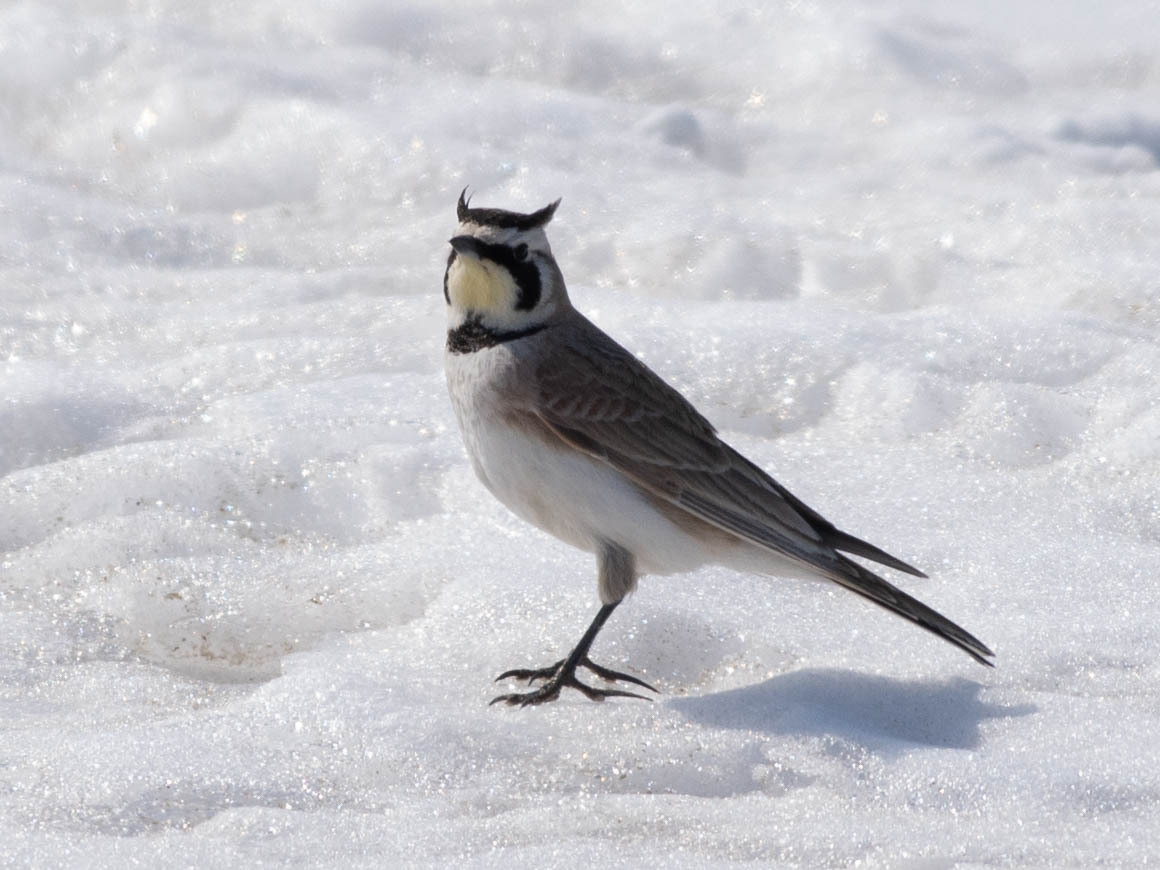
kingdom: Animalia
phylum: Chordata
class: Aves
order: Passeriformes
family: Alaudidae
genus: Eremophila
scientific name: Eremophila alpestris
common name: Horned lark
